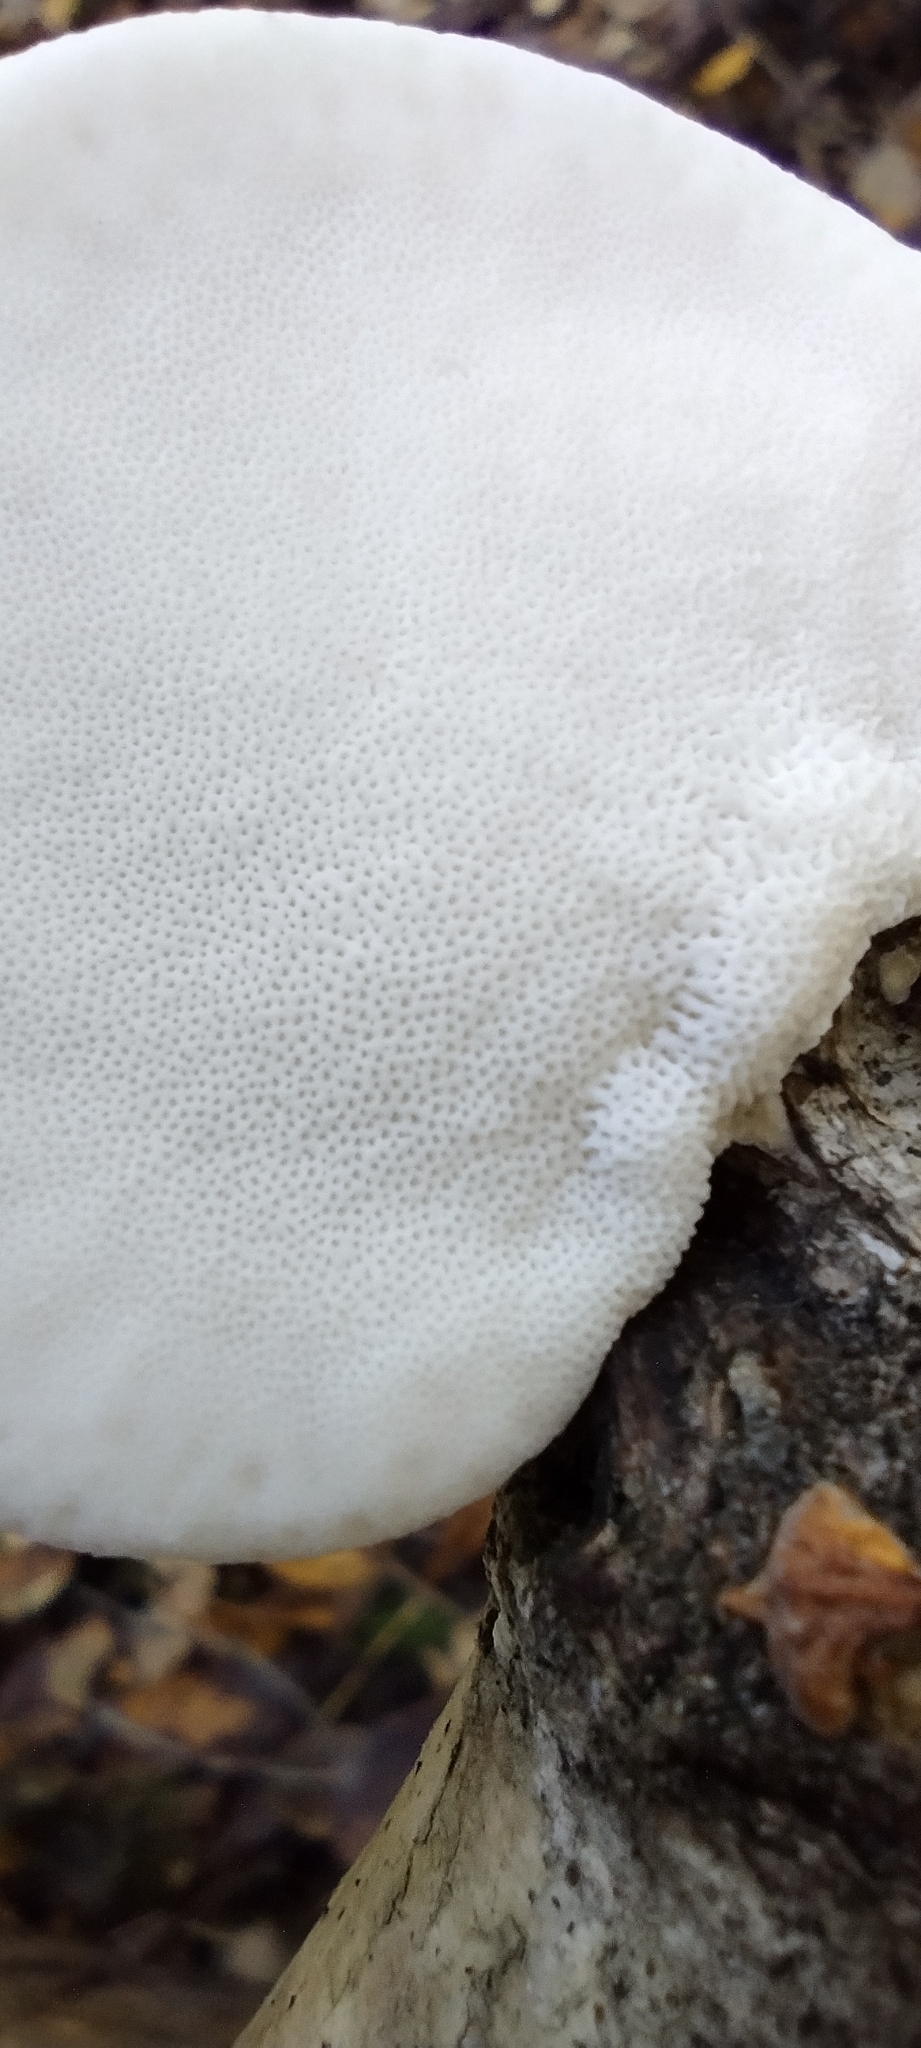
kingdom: Fungi
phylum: Basidiomycota
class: Agaricomycetes
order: Polyporales
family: Fomitopsidaceae
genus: Fomitopsis
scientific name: Fomitopsis betulina
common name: Birch polypore
